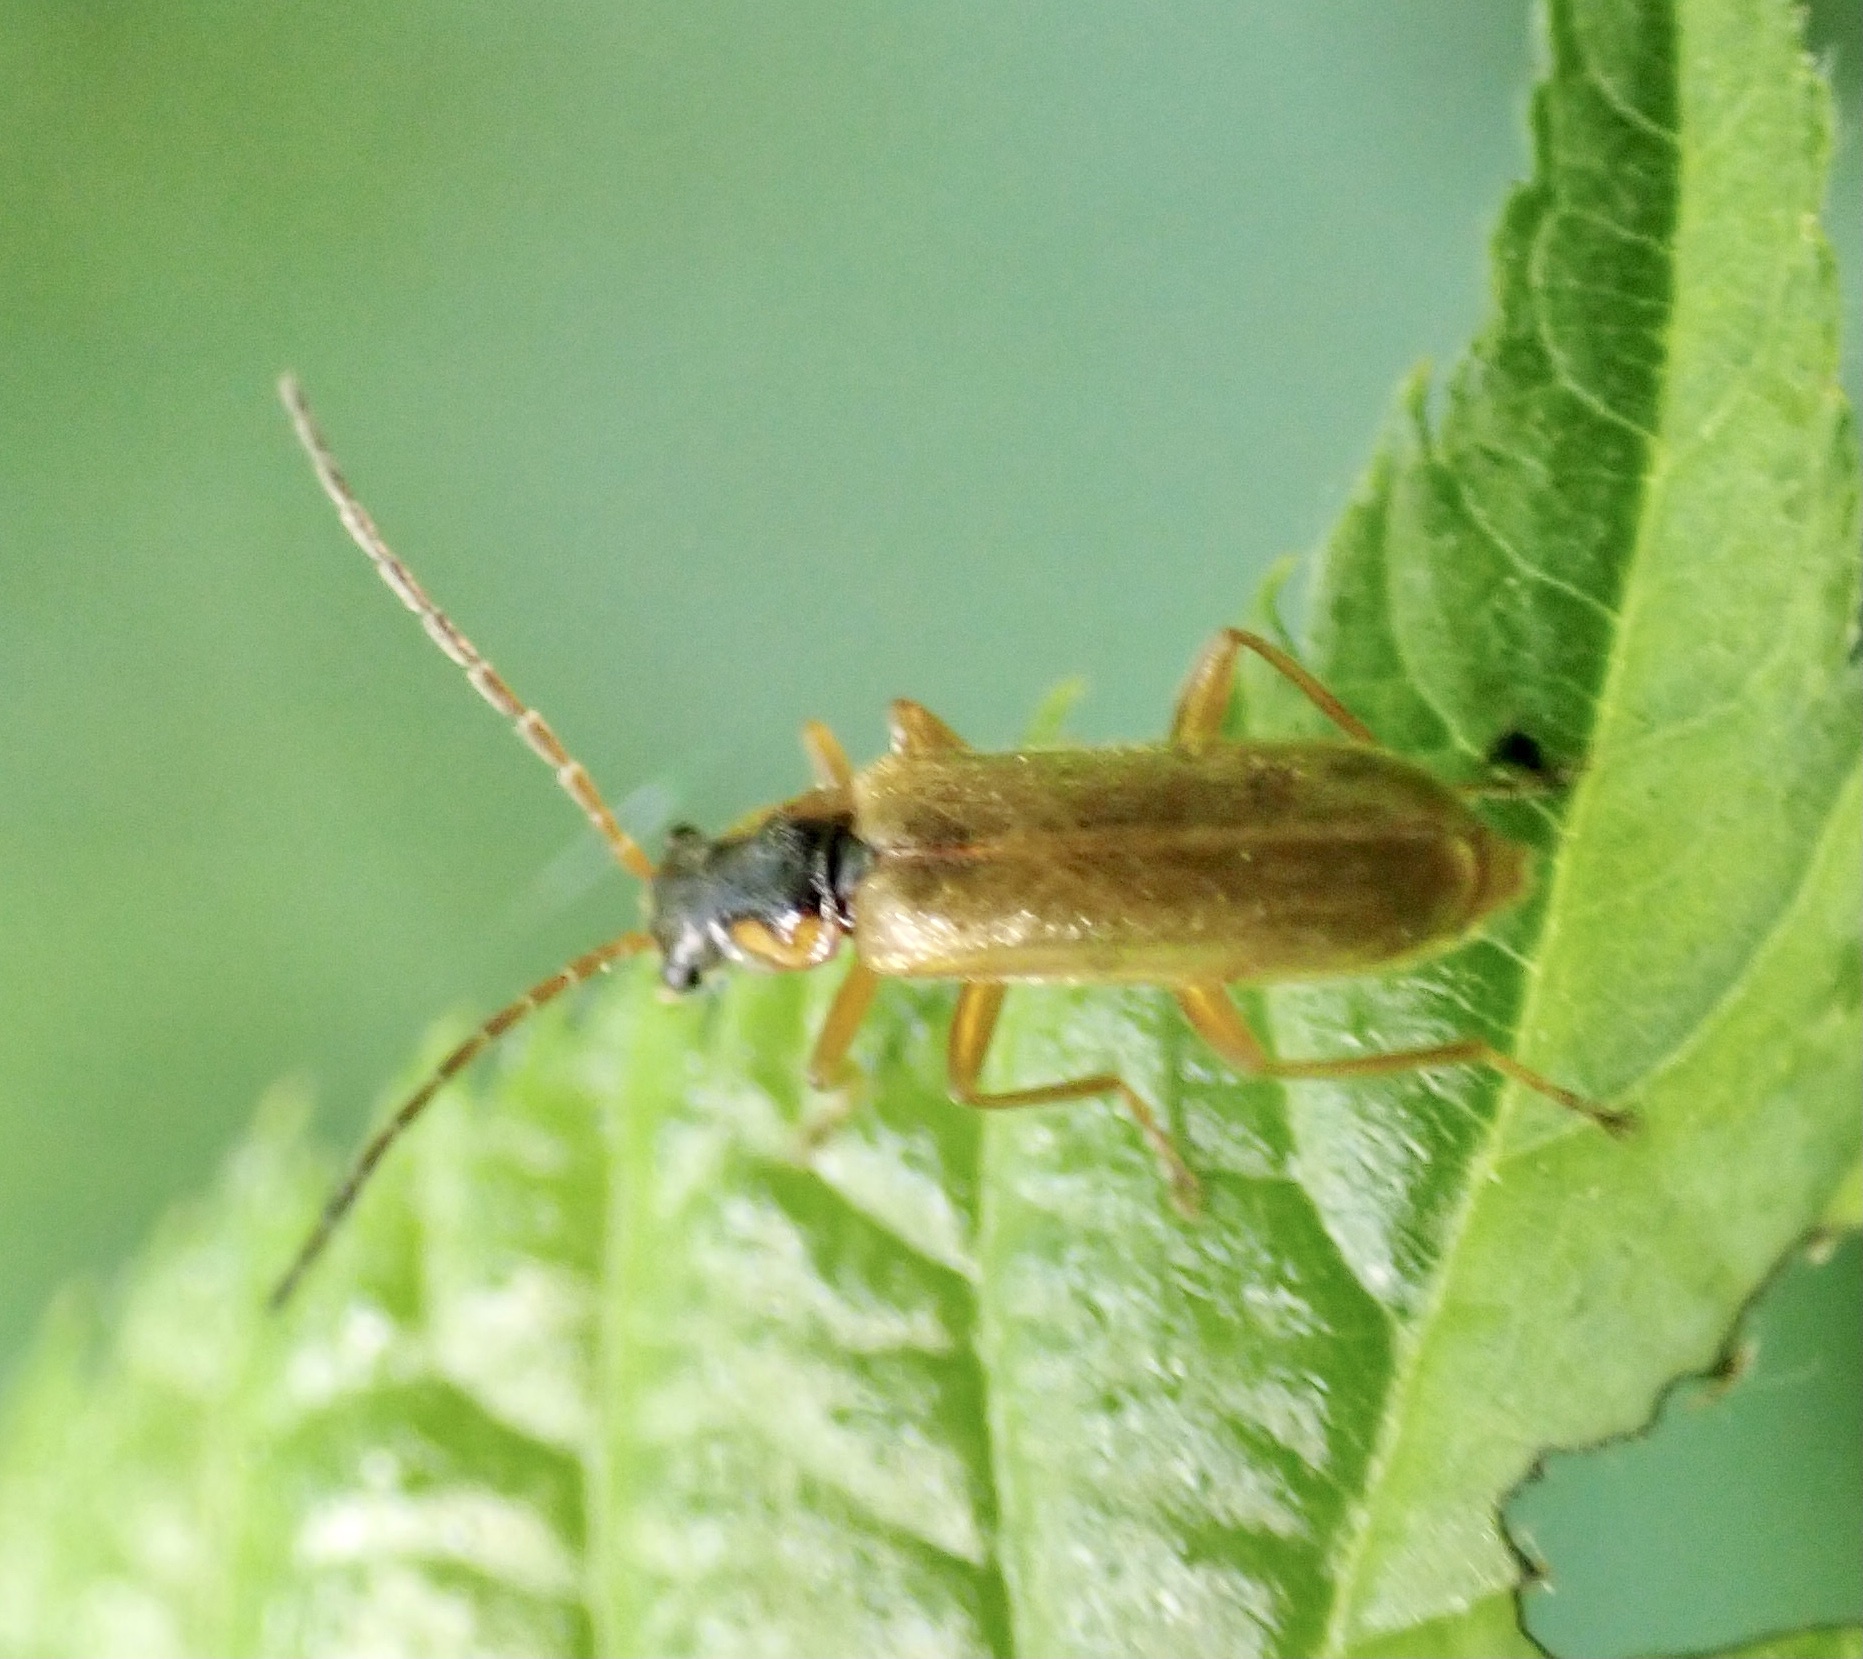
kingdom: Animalia
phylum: Arthropoda
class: Insecta
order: Coleoptera
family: Cantharidae
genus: Rhagonycha
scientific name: Rhagonycha testacea
